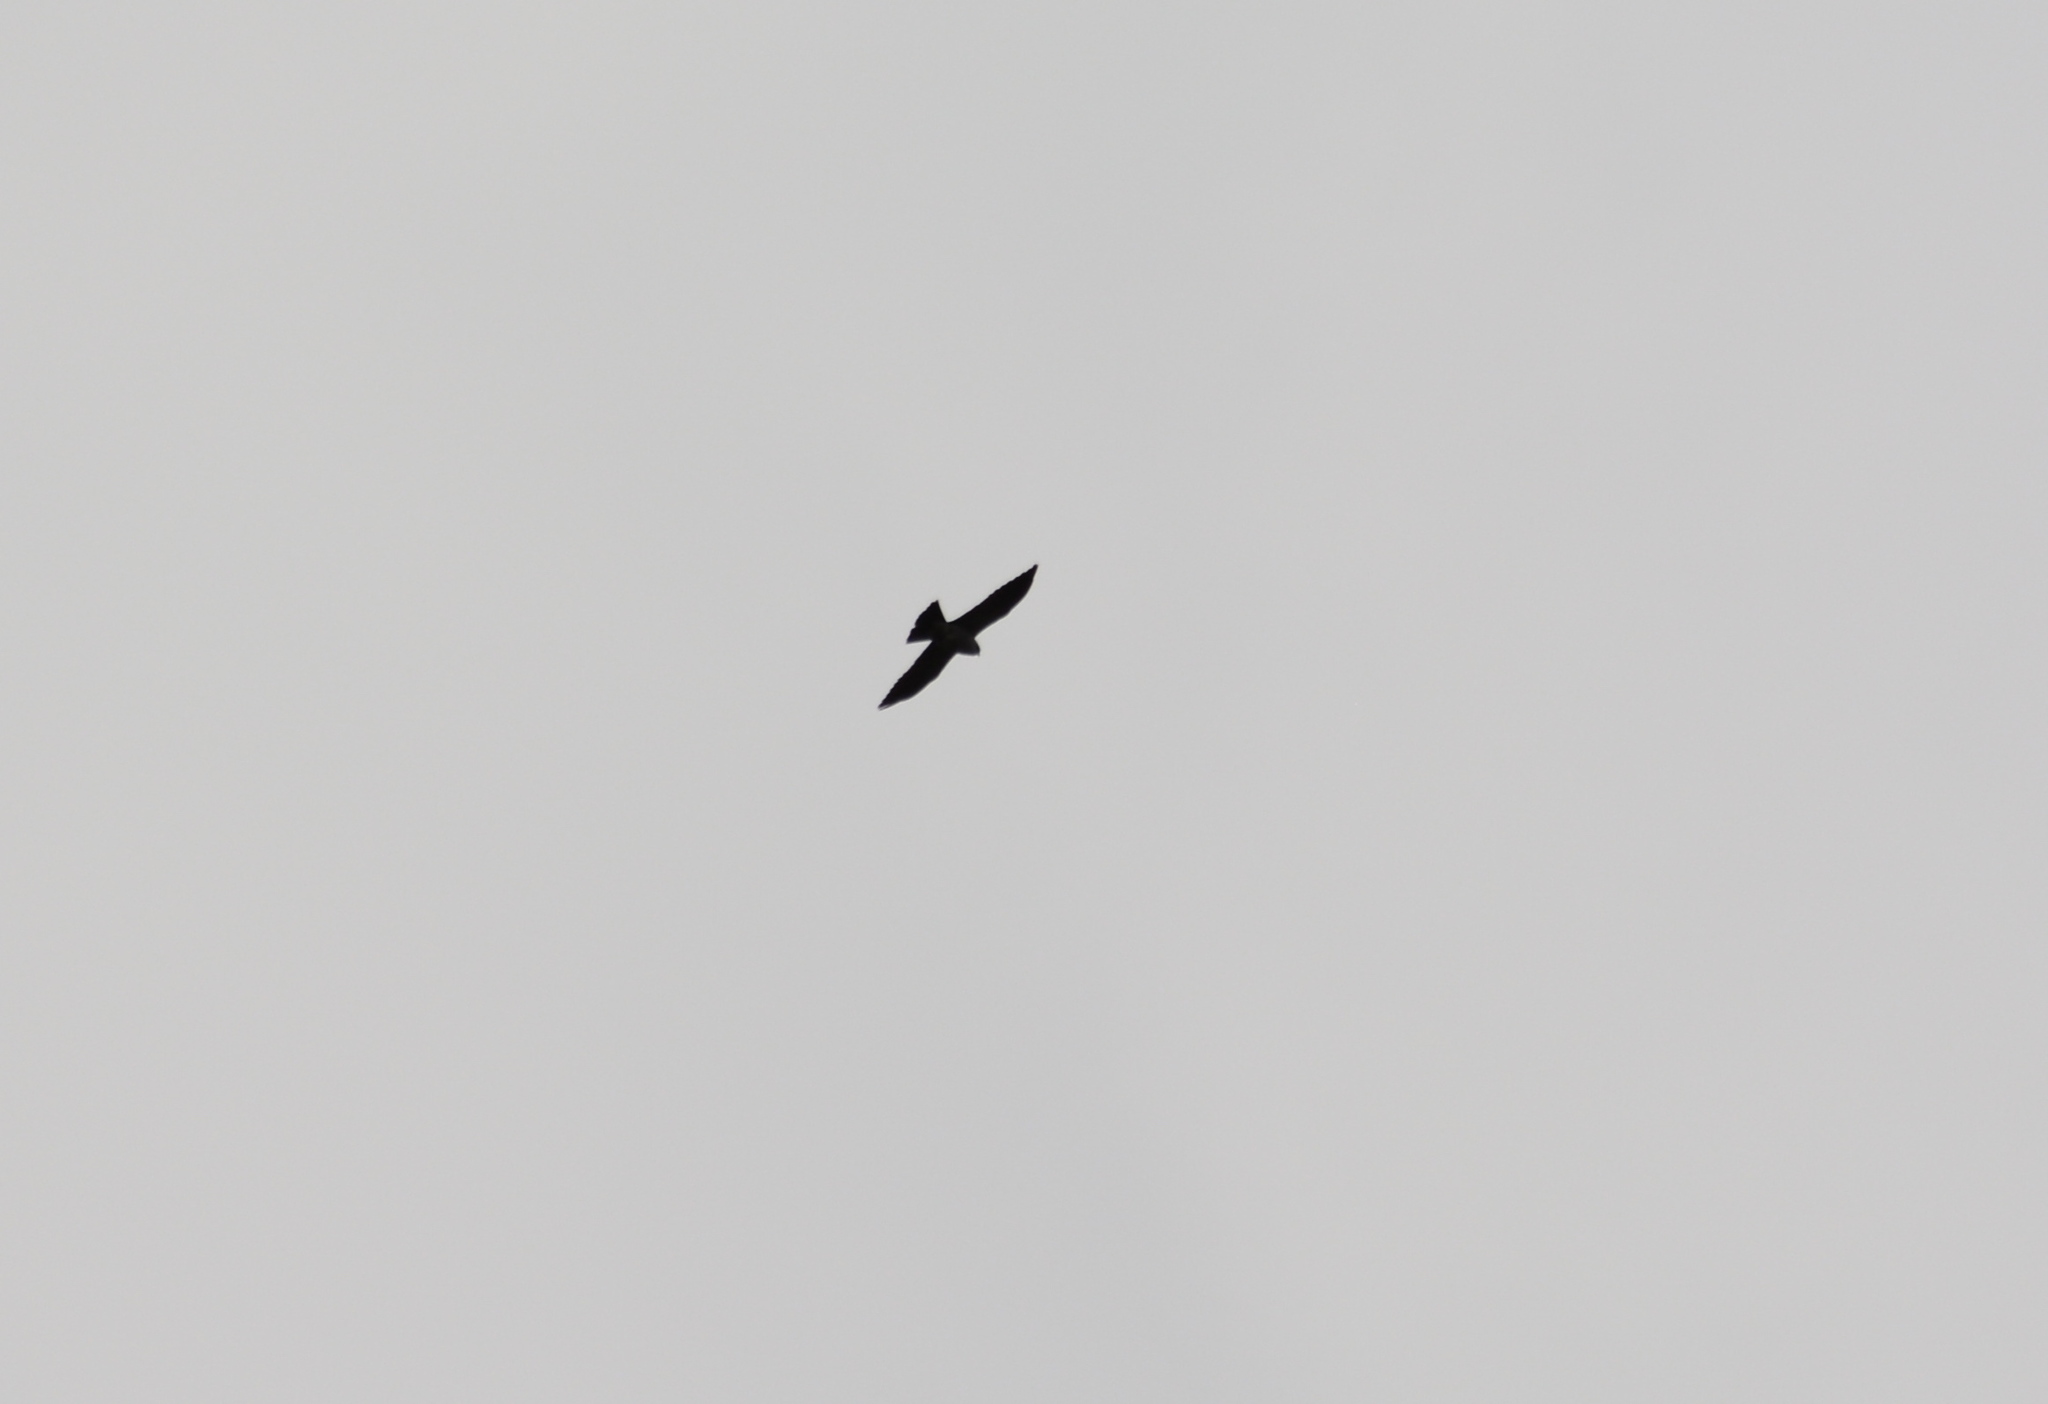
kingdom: Animalia
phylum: Chordata
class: Aves
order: Accipitriformes
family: Accipitridae
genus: Ictinia
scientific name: Ictinia mississippiensis
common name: Mississippi kite
